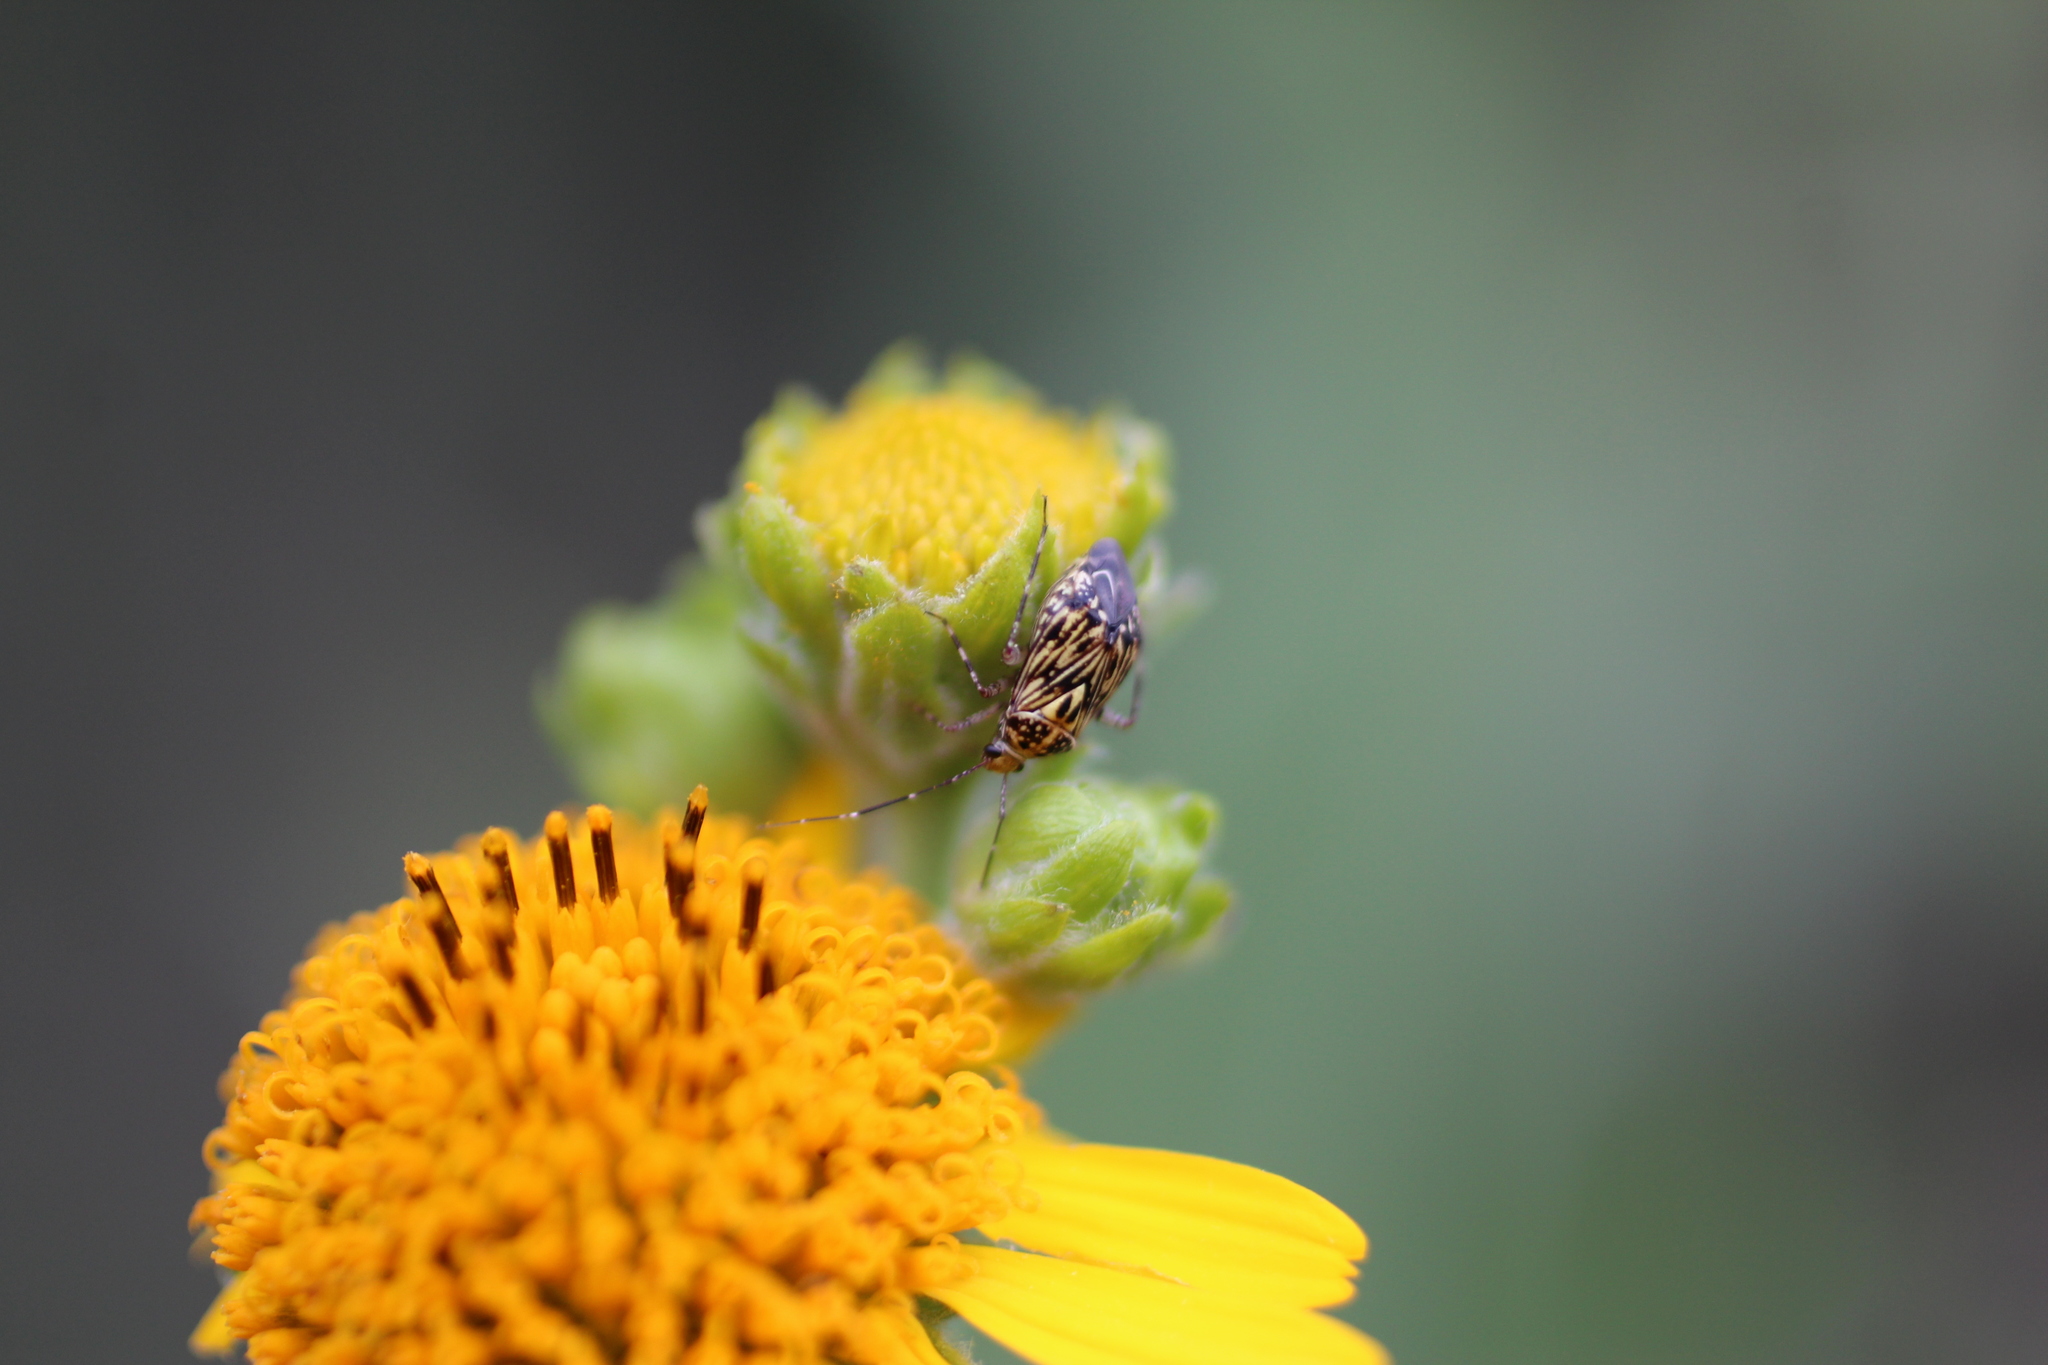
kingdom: Animalia
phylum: Arthropoda
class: Insecta
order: Hemiptera
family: Miridae
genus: Taedia
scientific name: Taedia fasciola
